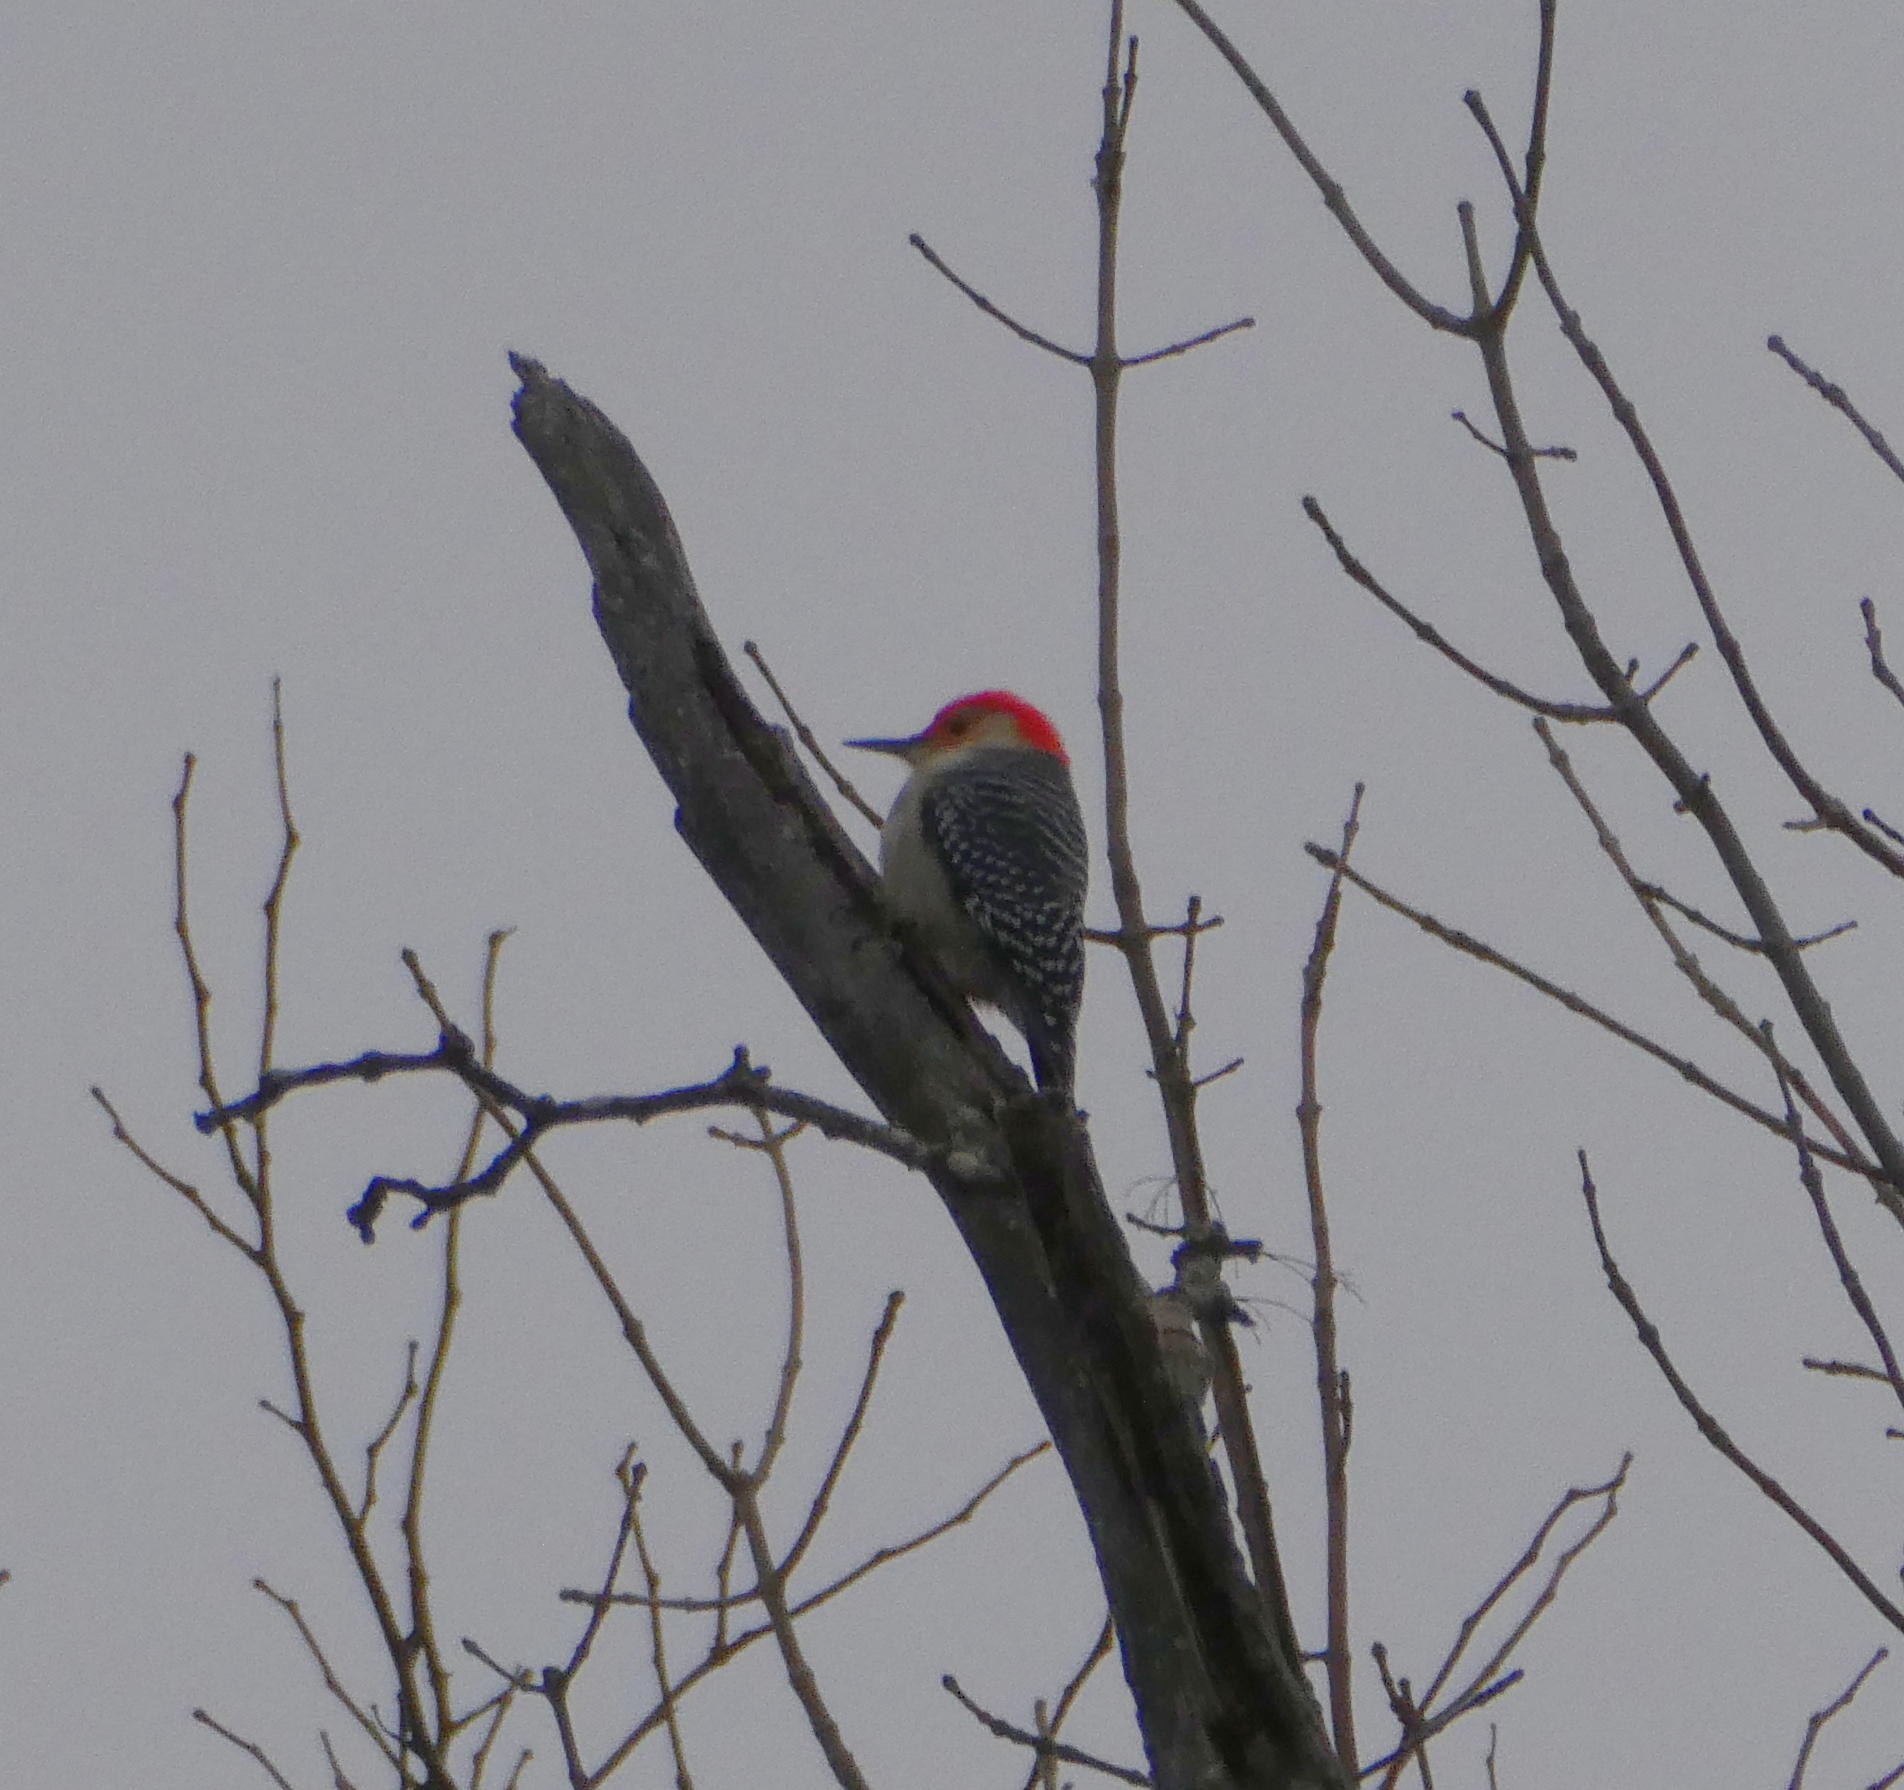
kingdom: Animalia
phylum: Chordata
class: Aves
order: Piciformes
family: Picidae
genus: Melanerpes
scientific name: Melanerpes carolinus
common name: Red-bellied woodpecker
